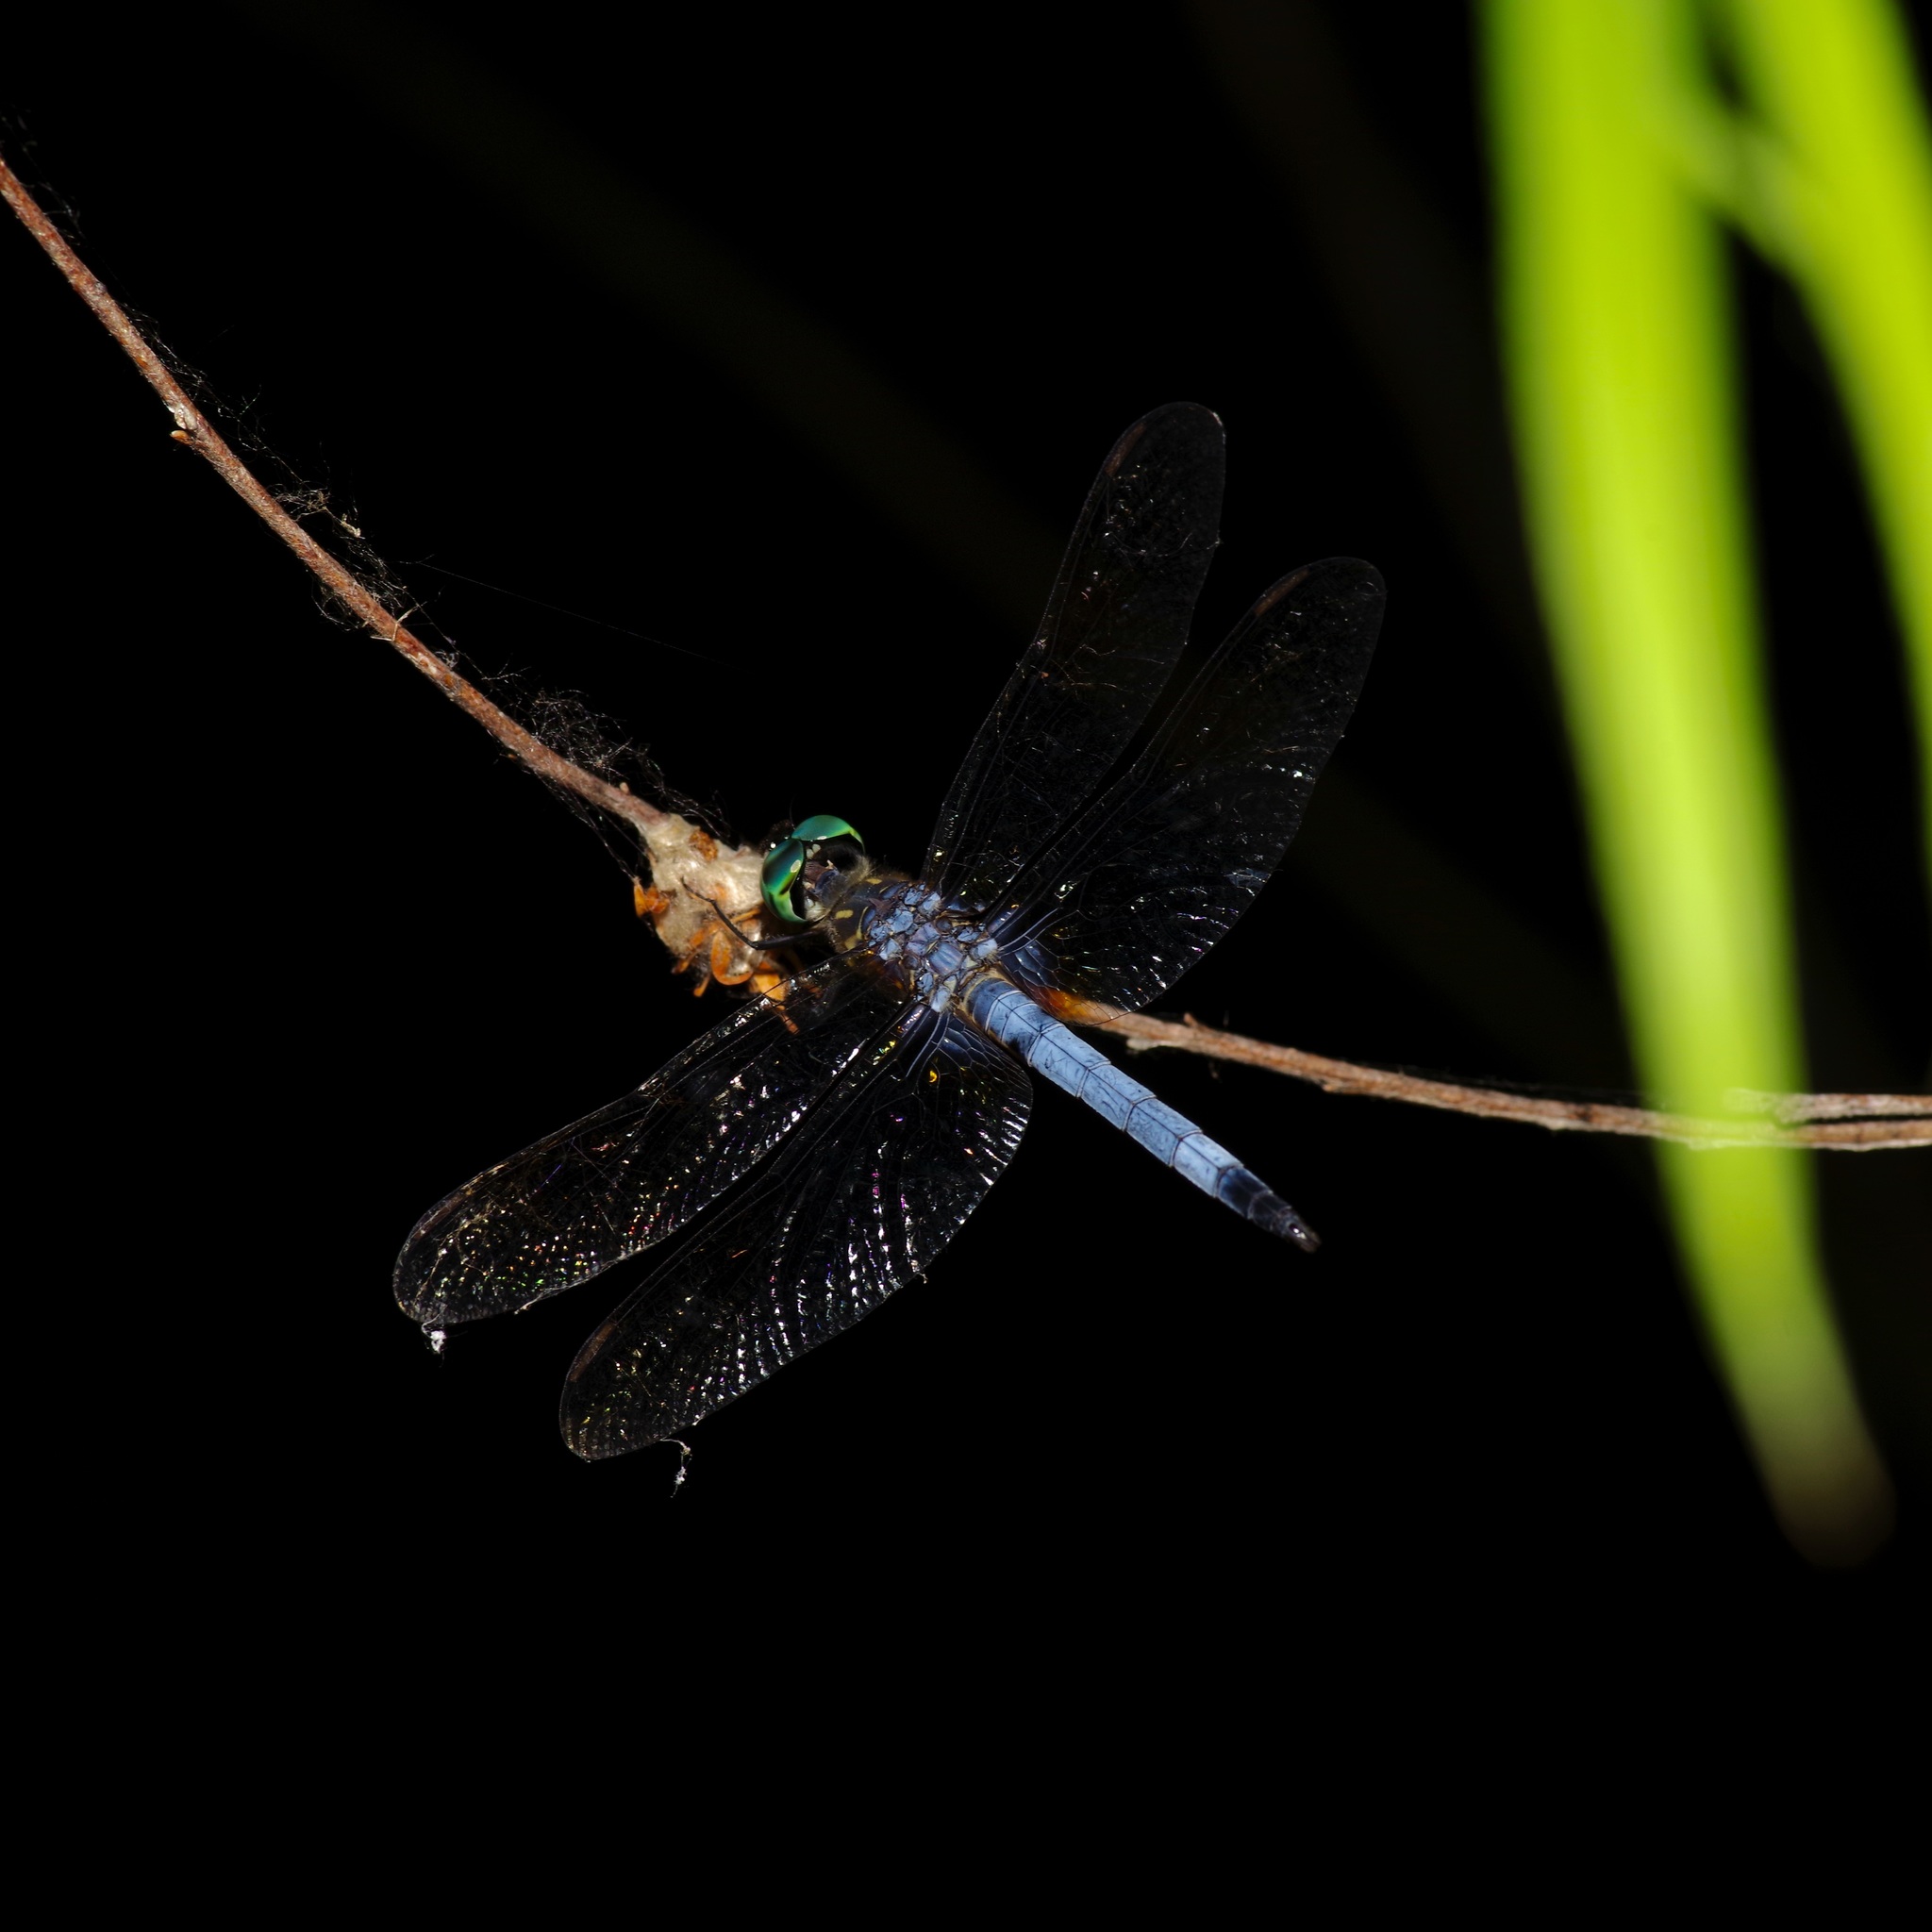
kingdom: Animalia
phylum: Arthropoda
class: Insecta
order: Odonata
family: Libellulidae
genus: Pachydiplax
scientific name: Pachydiplax longipennis
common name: Blue dasher
